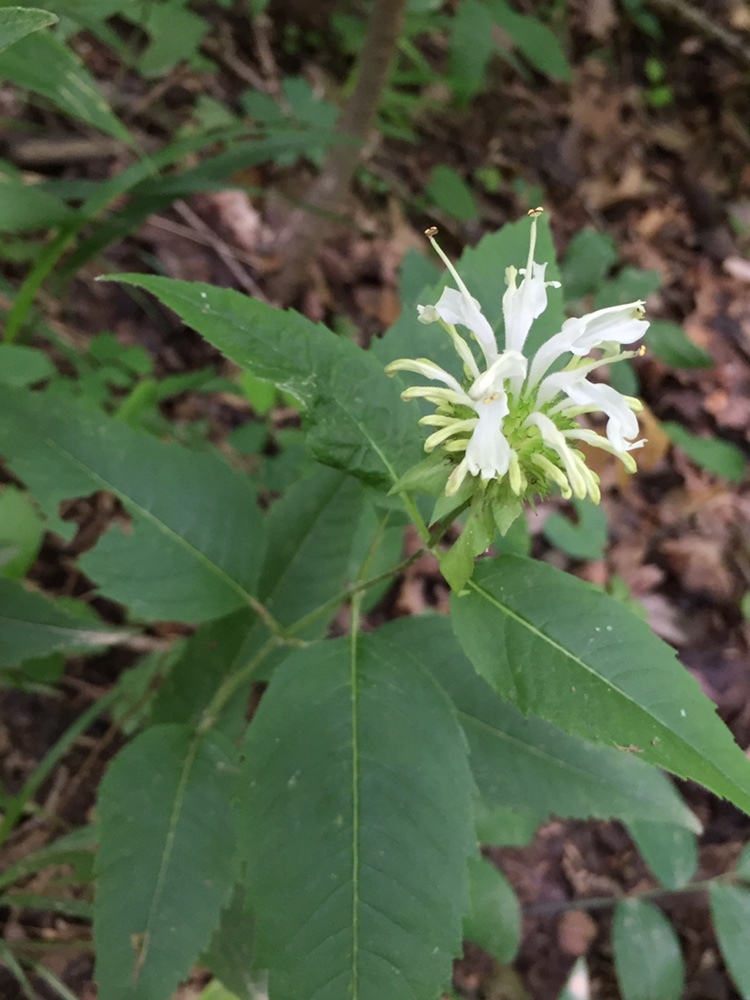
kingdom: Plantae
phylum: Tracheophyta
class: Magnoliopsida
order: Lamiales
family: Lamiaceae
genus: Monarda
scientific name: Monarda clinopodia
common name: Basil beebalm
